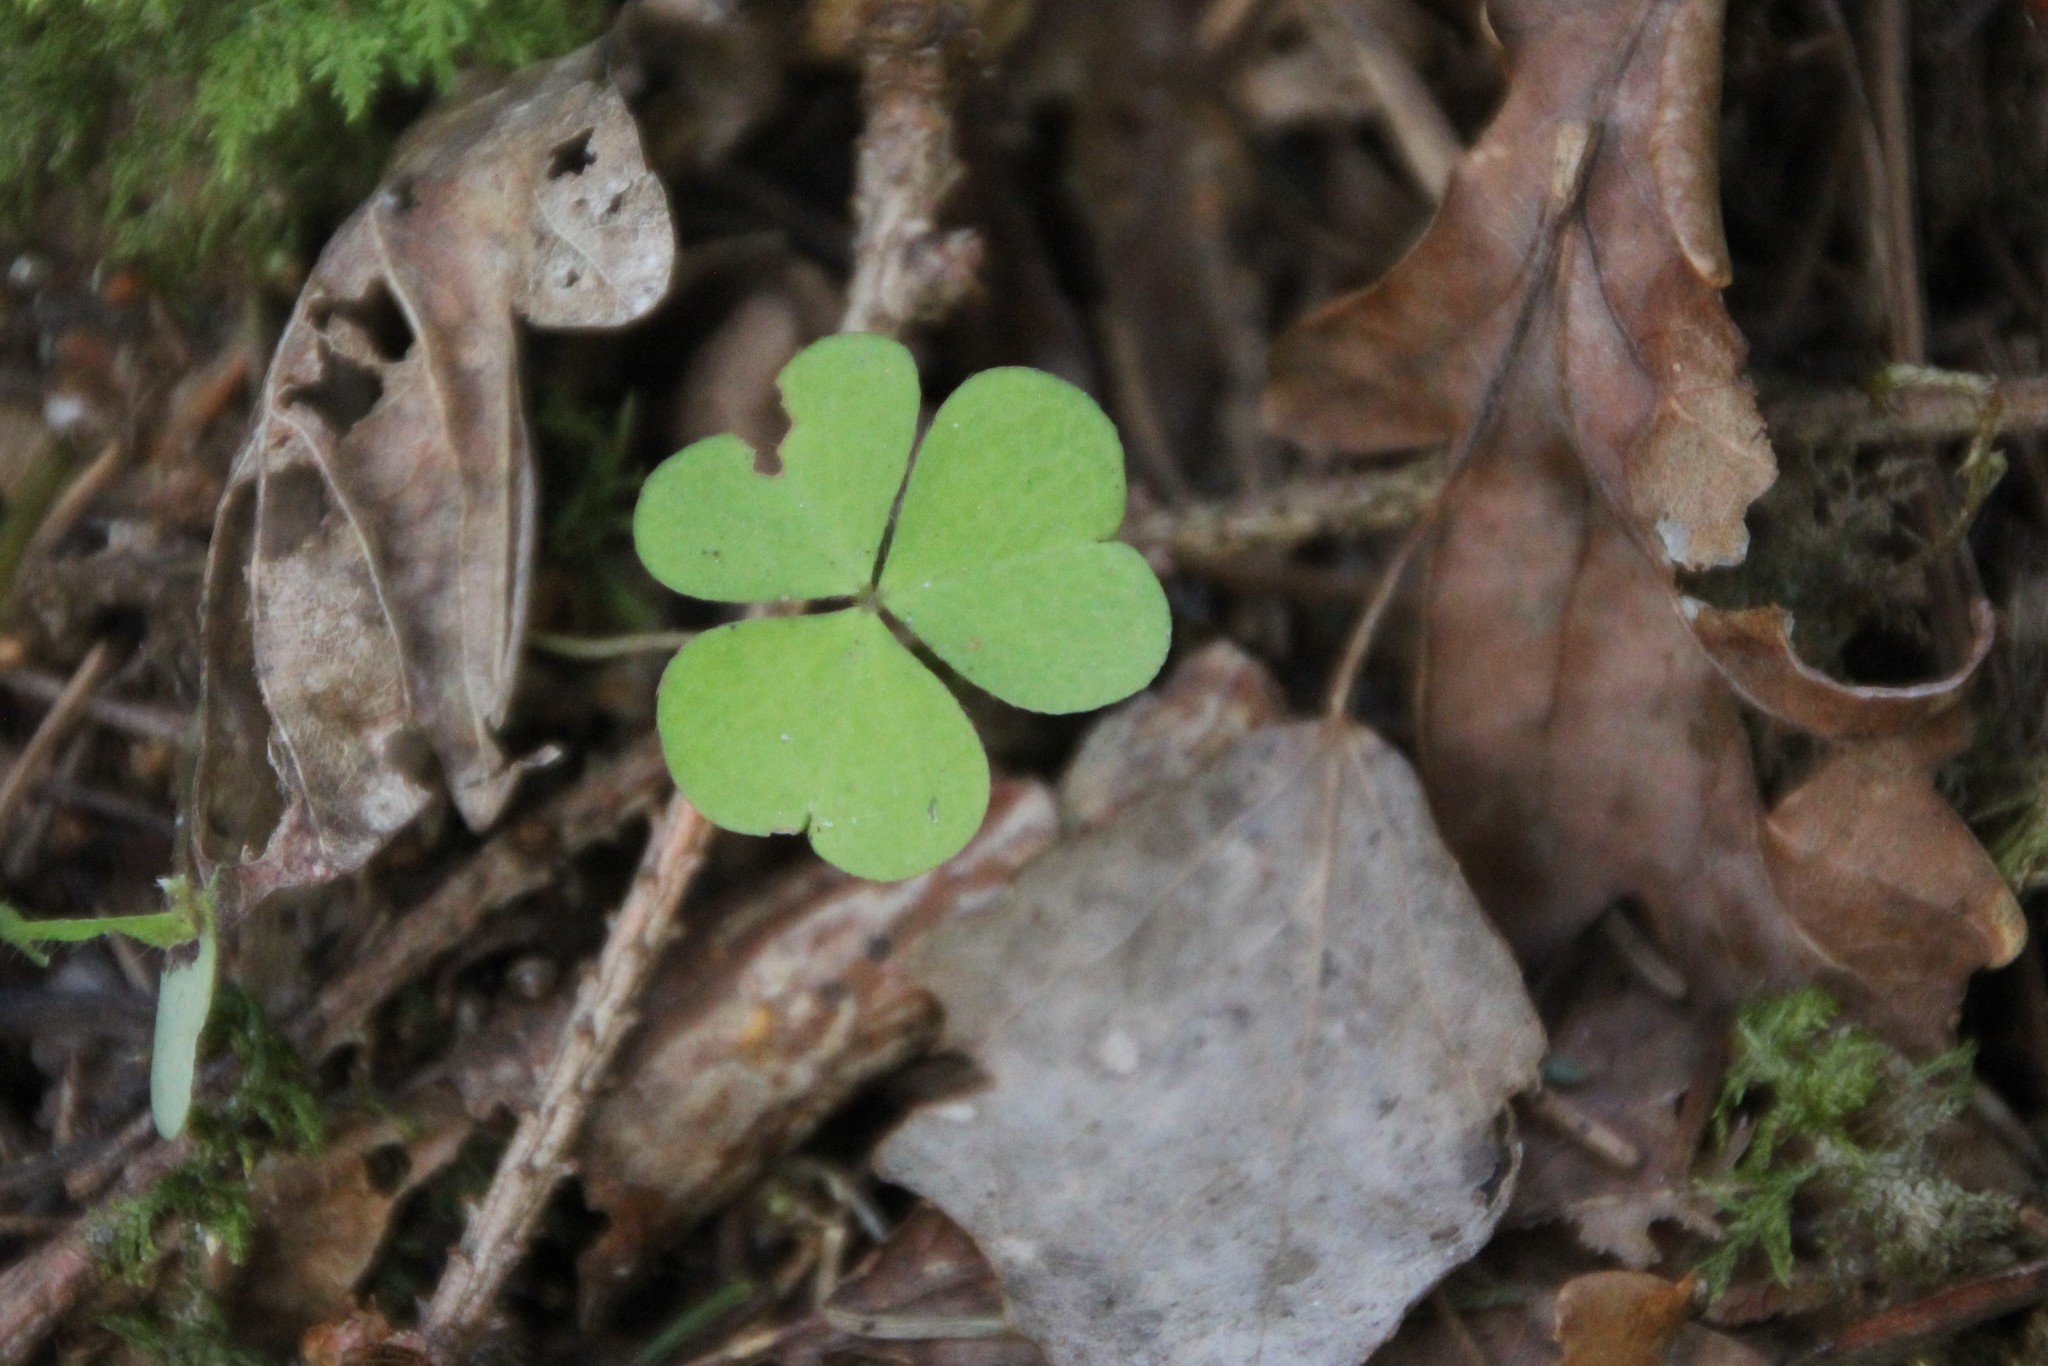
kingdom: Plantae
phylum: Tracheophyta
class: Magnoliopsida
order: Oxalidales
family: Oxalidaceae
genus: Oxalis
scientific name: Oxalis acetosella
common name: Wood-sorrel
